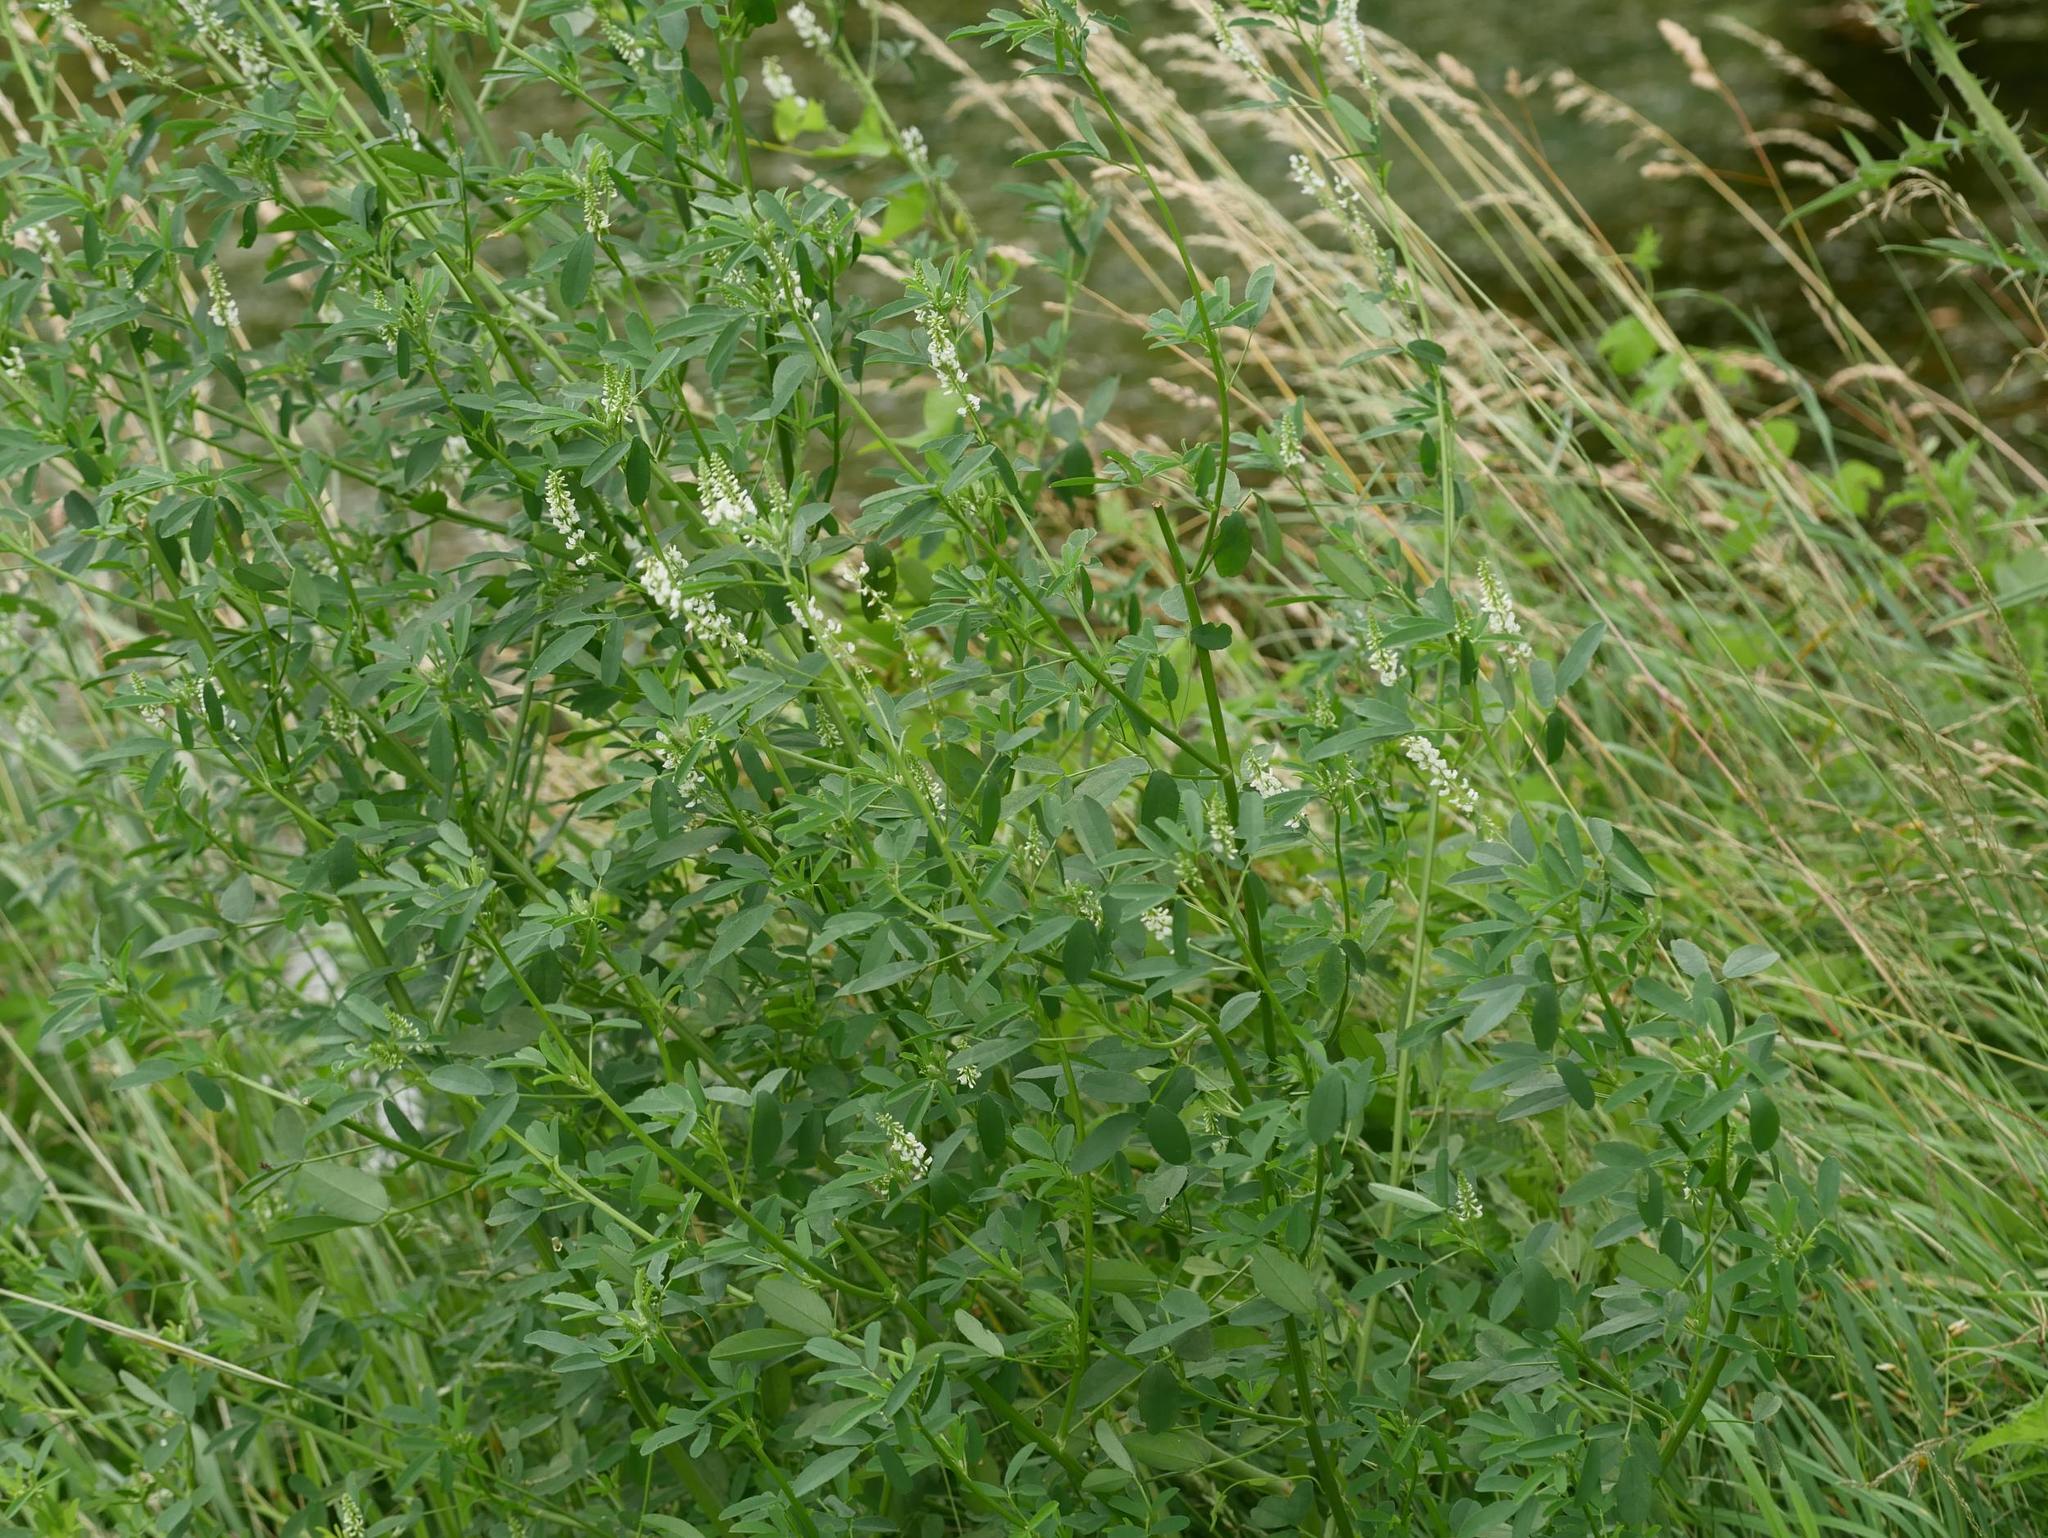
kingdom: Plantae
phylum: Tracheophyta
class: Magnoliopsida
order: Fabales
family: Fabaceae
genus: Melilotus
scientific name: Melilotus albus
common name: White melilot
